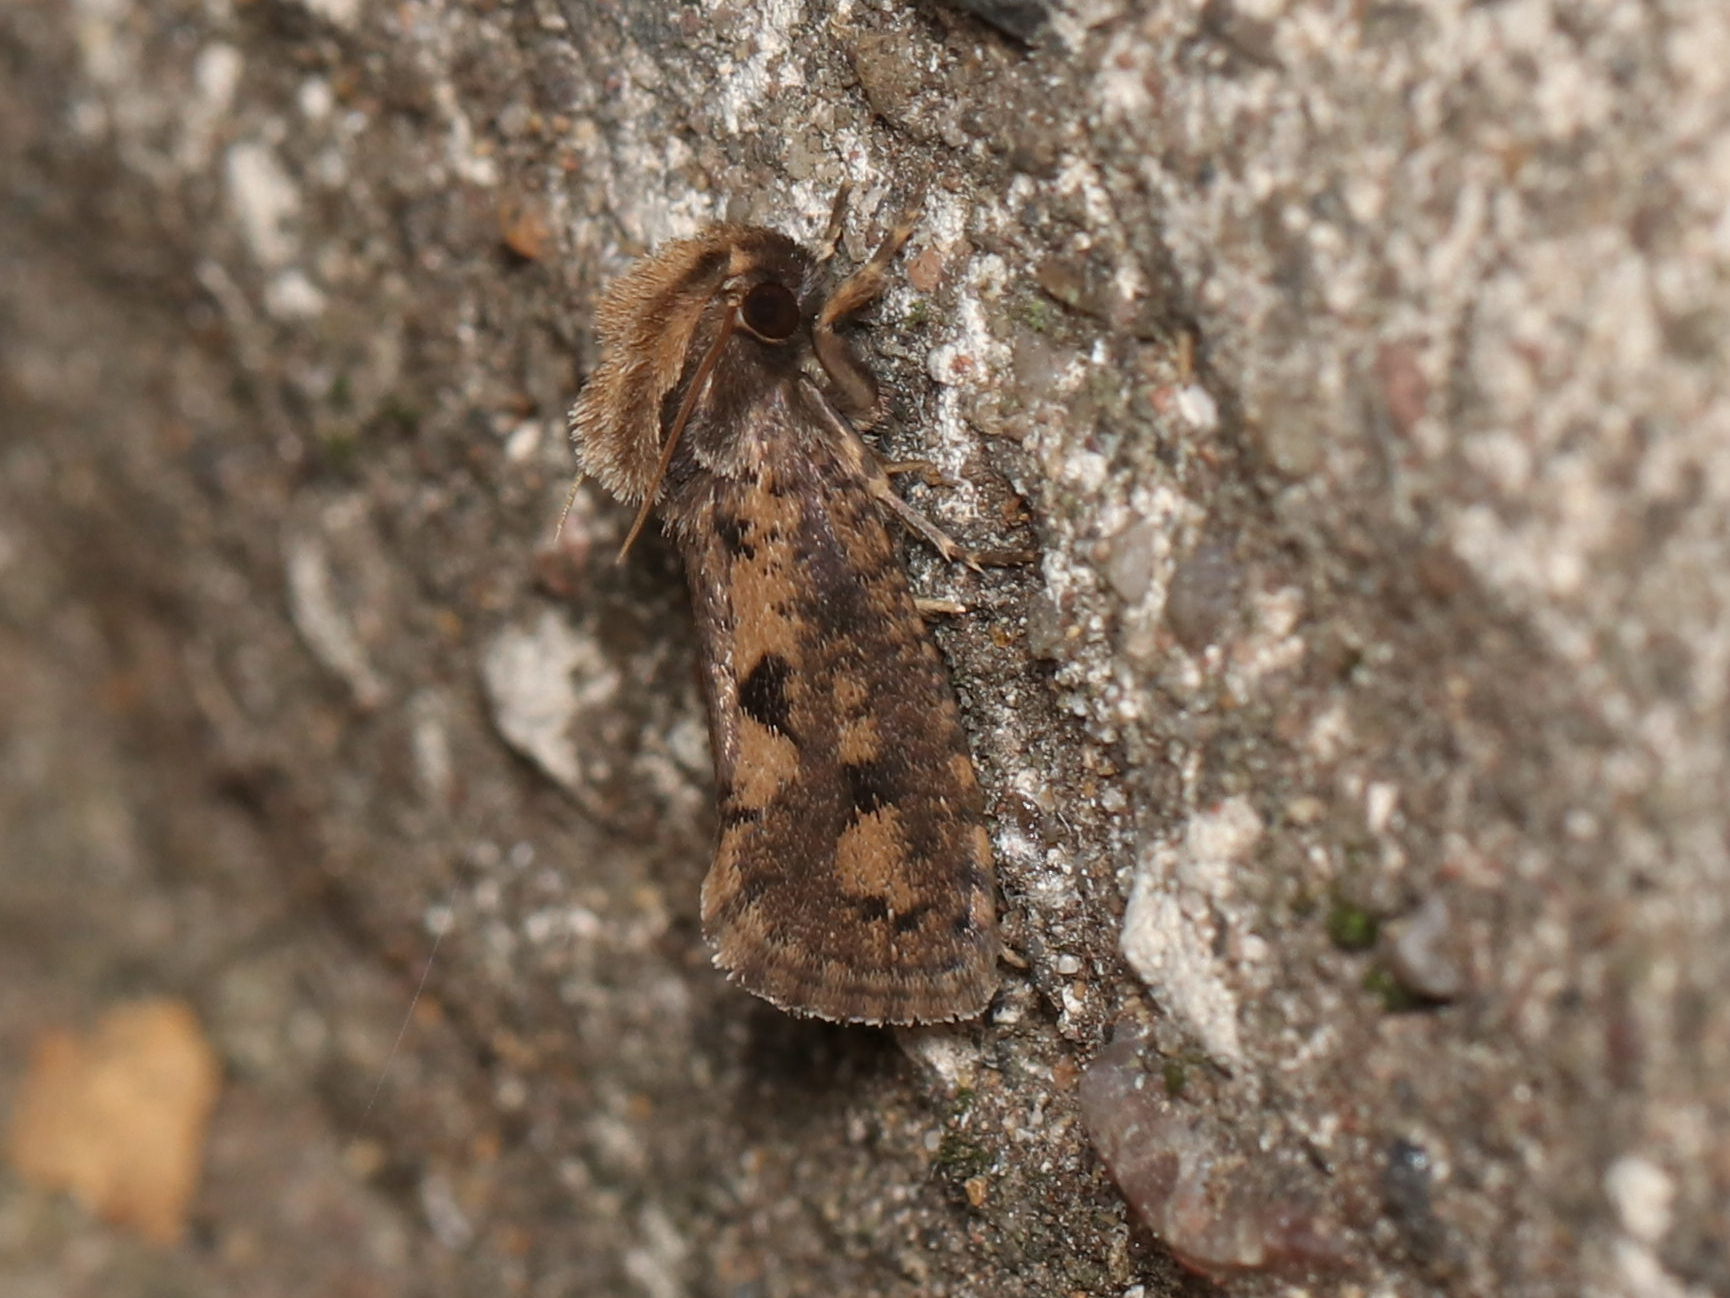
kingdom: Animalia
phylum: Arthropoda
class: Insecta
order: Lepidoptera
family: Tineidae
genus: Acrolophus
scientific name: Acrolophus popeanella
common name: Clemens' grass tubeworm moth
